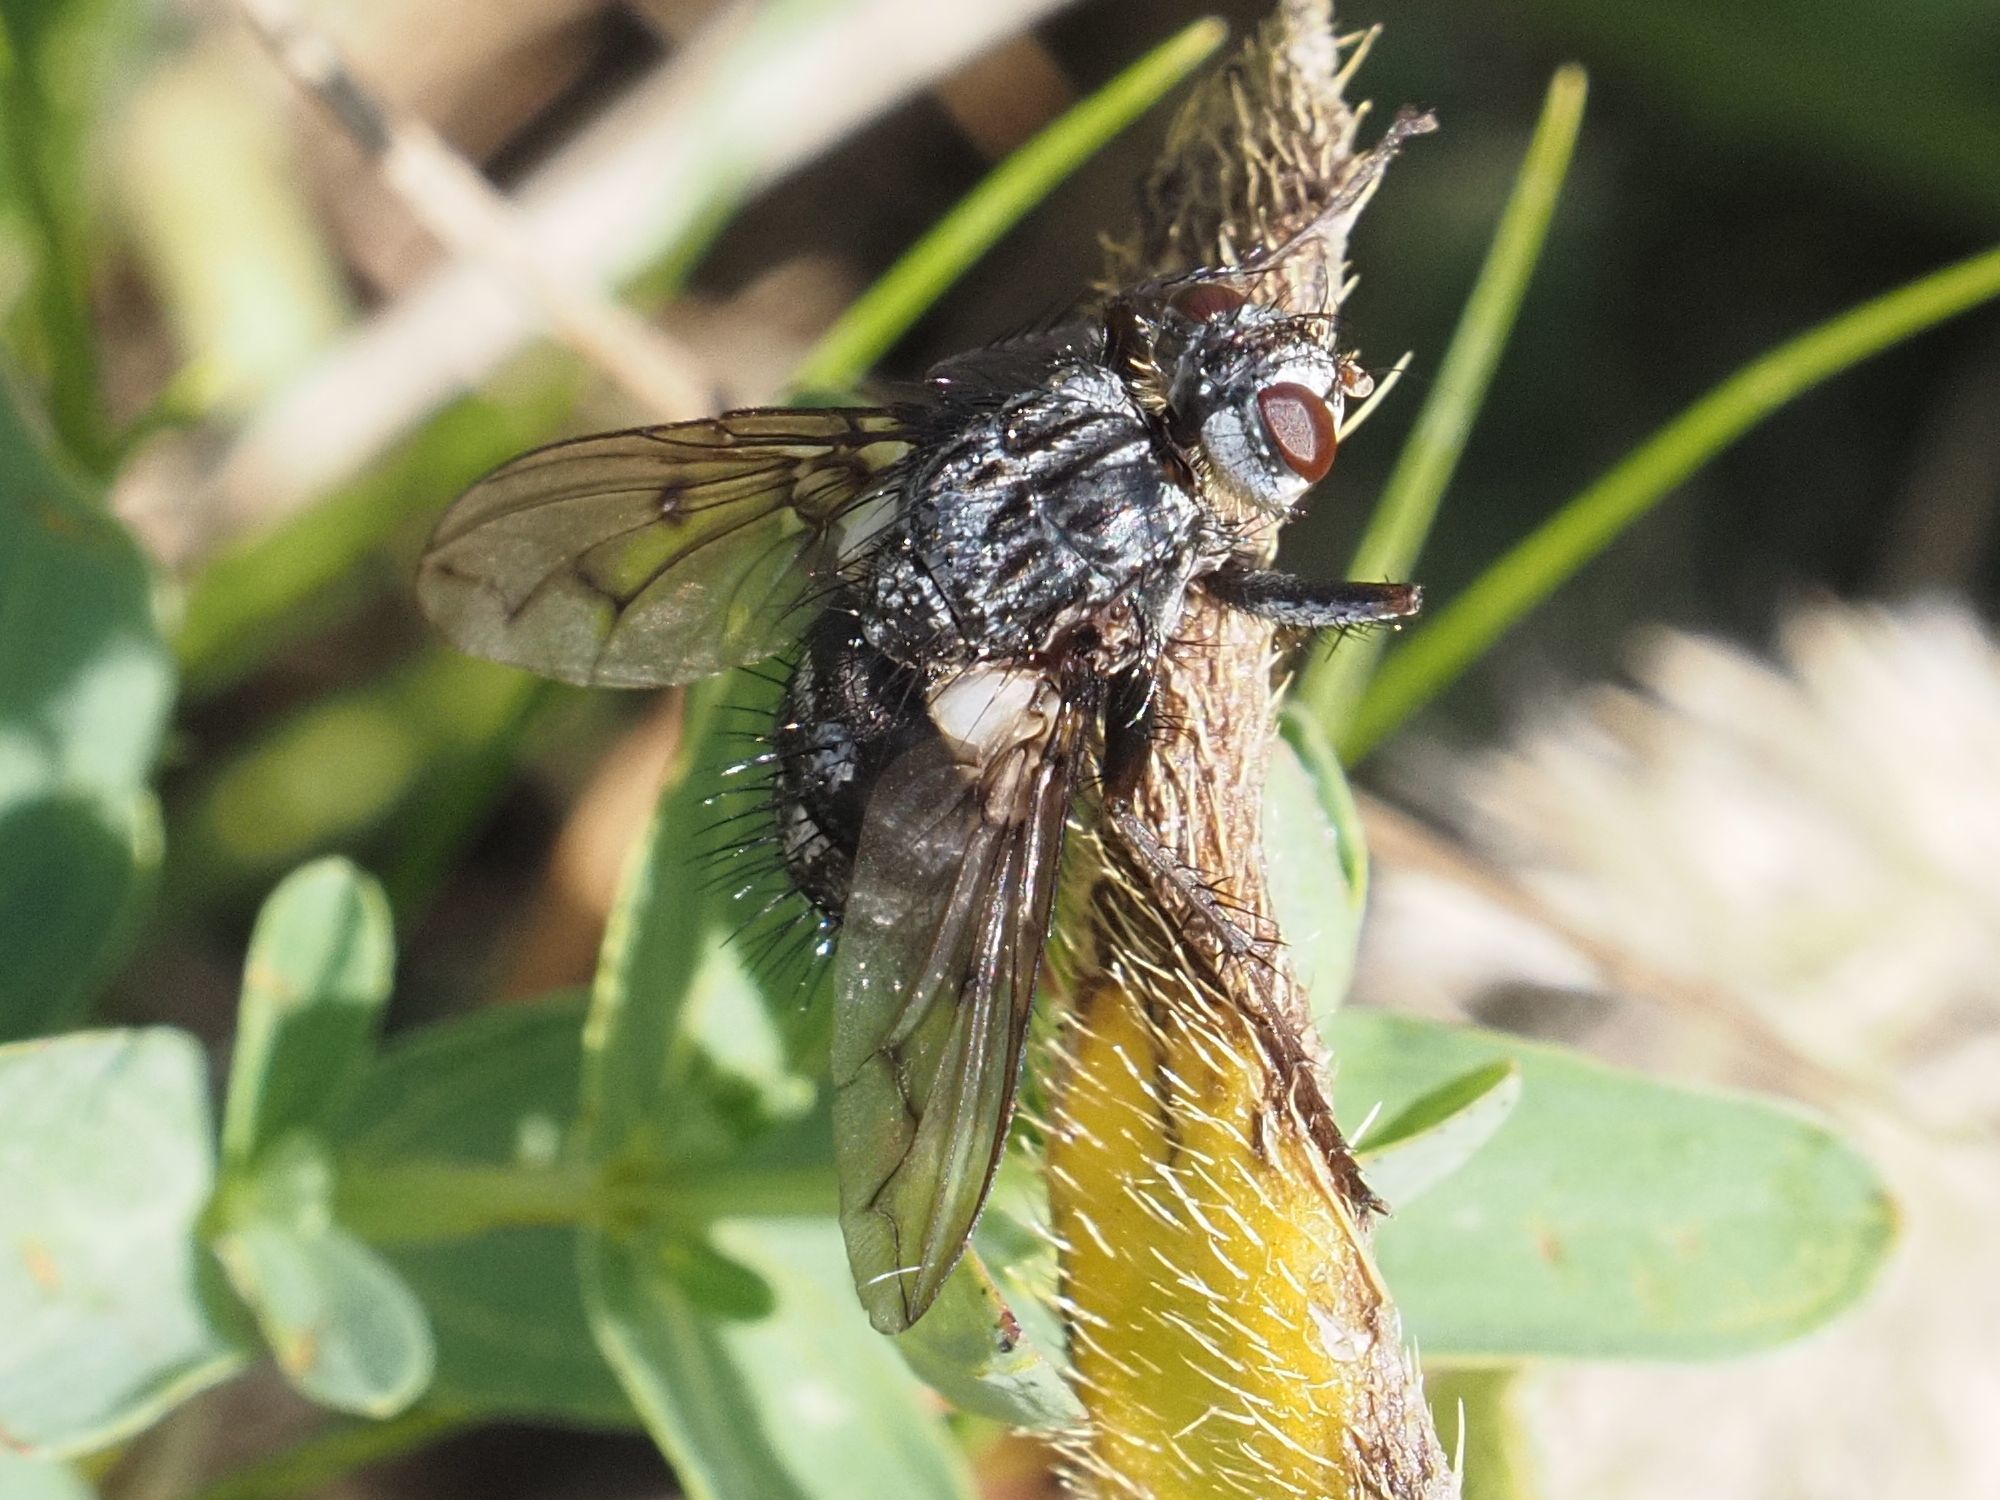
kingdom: Animalia
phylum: Arthropoda
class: Insecta
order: Diptera
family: Tachinidae
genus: Trixa
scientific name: Trixa conspersa
